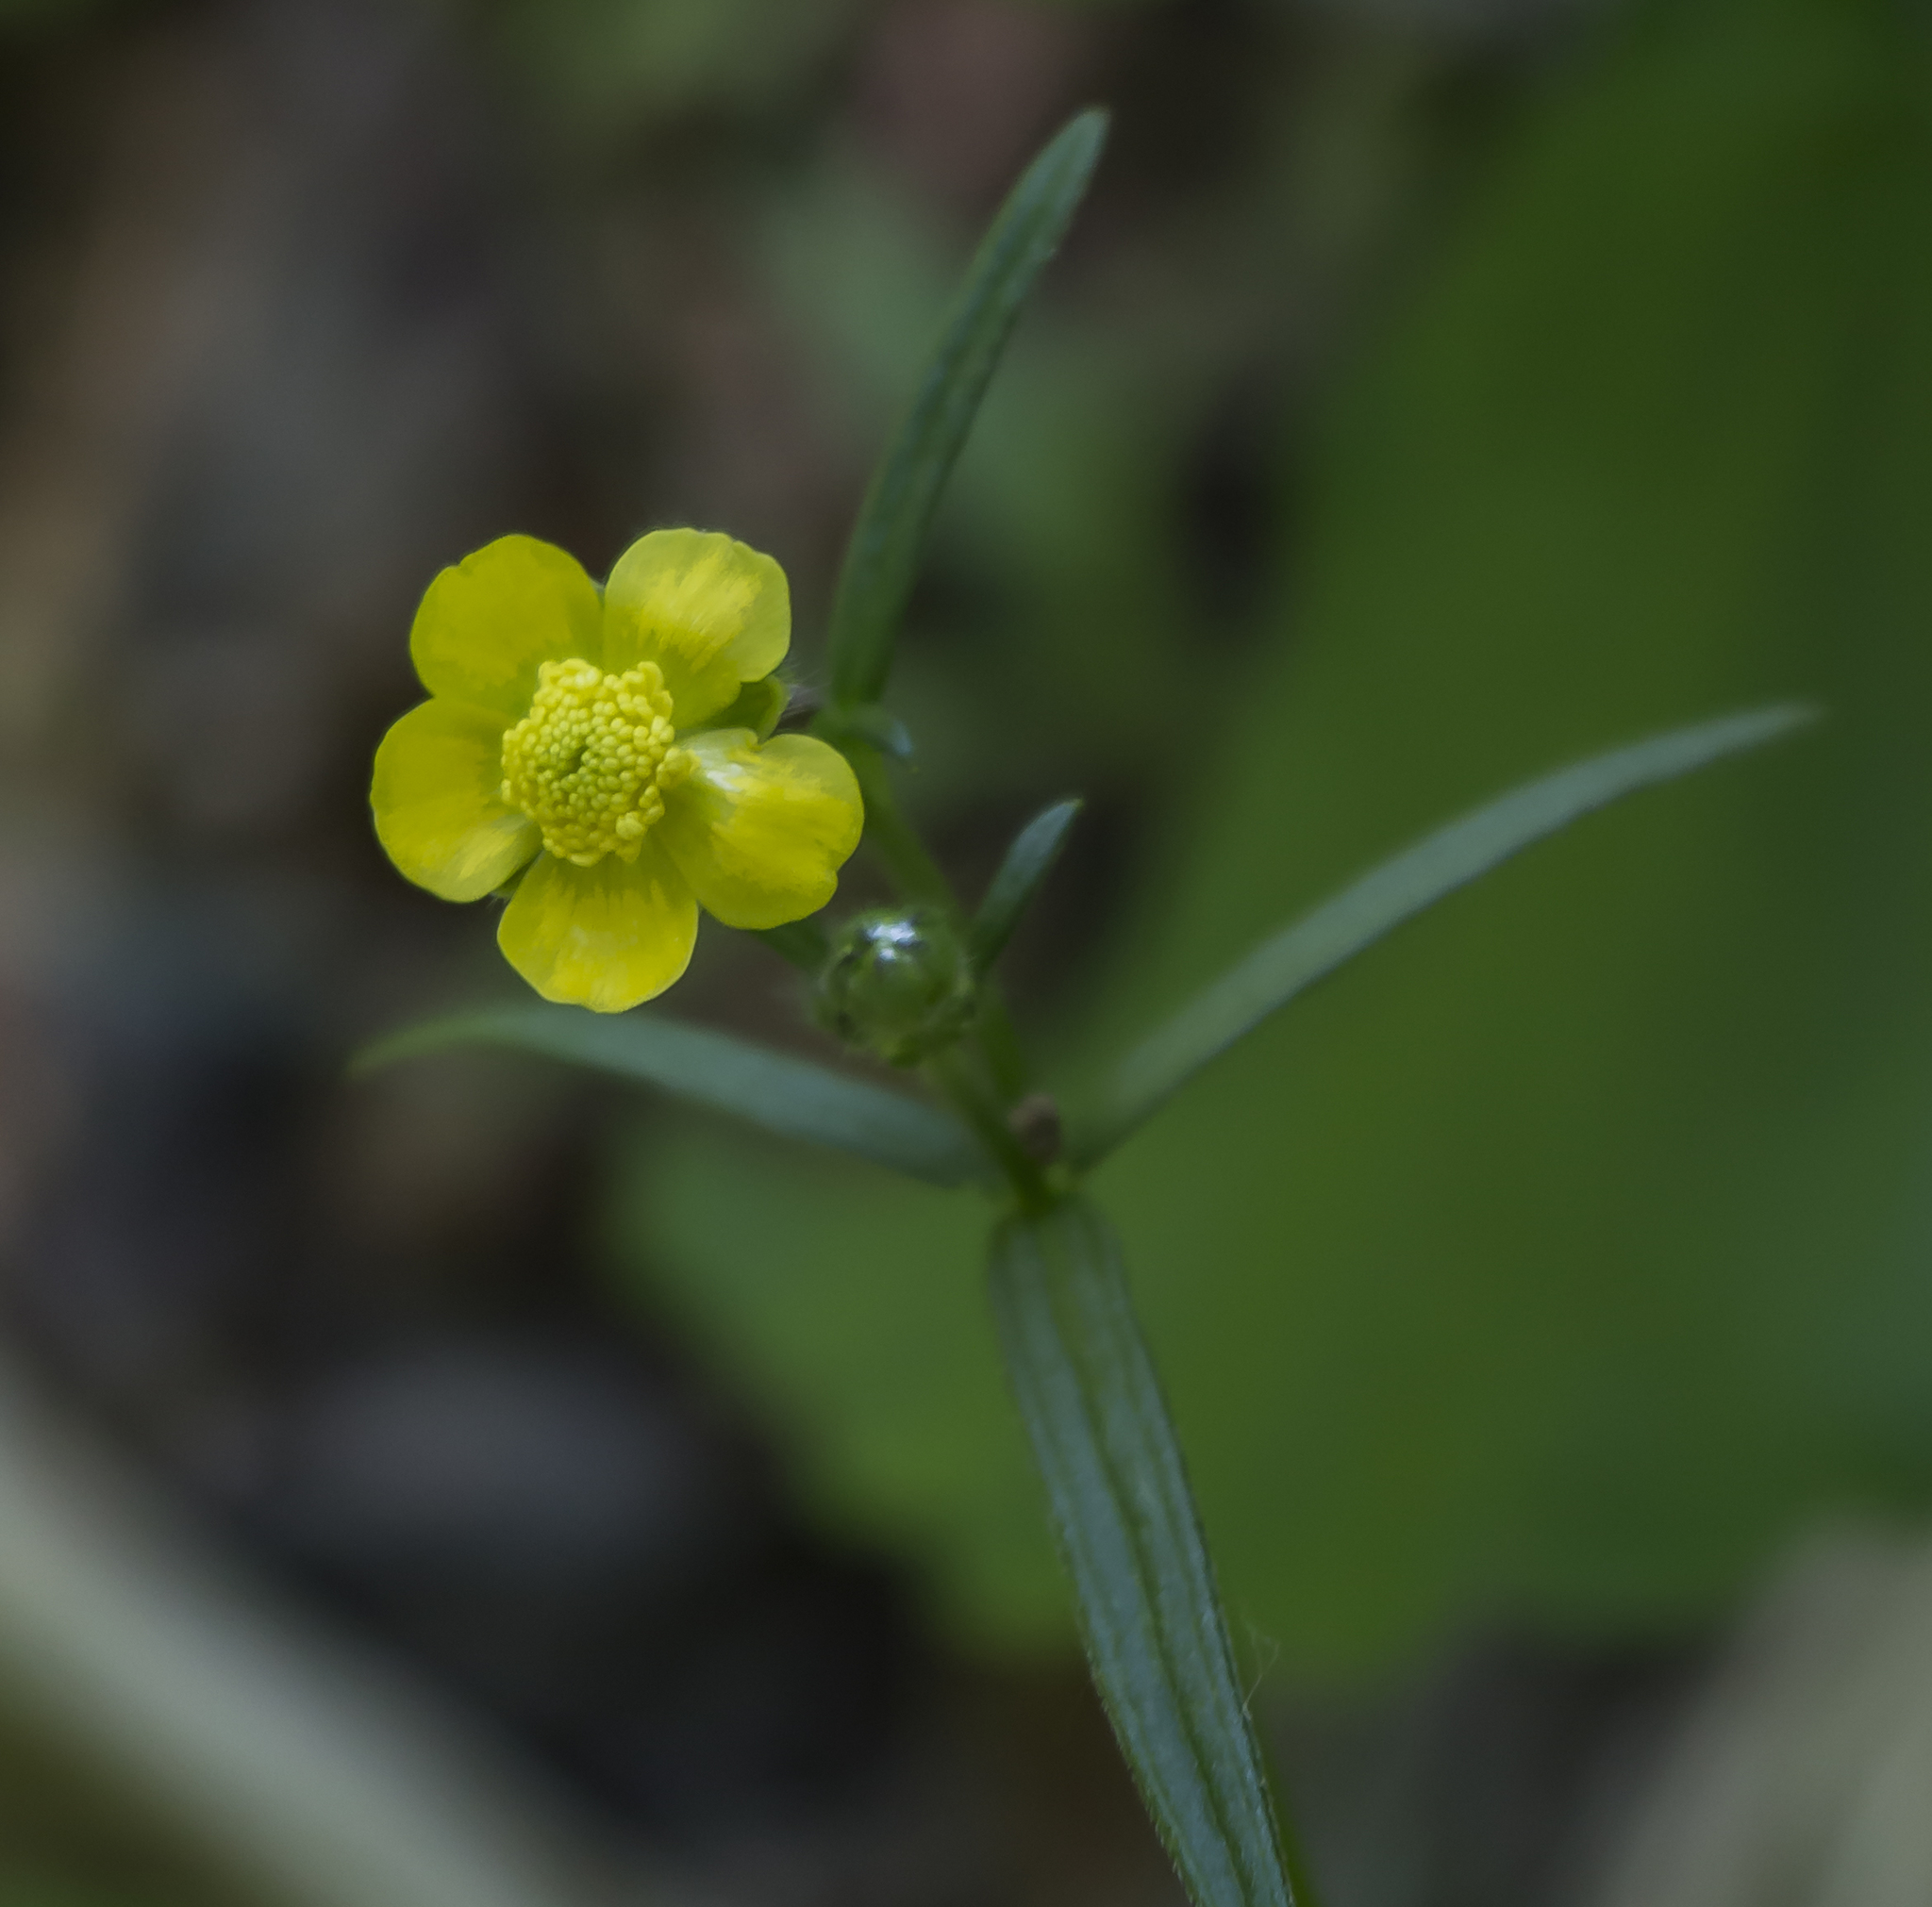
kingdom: Plantae
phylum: Tracheophyta
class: Magnoliopsida
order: Ranunculales
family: Ranunculaceae
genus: Ranunculus
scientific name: Ranunculus acris
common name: Meadow buttercup
